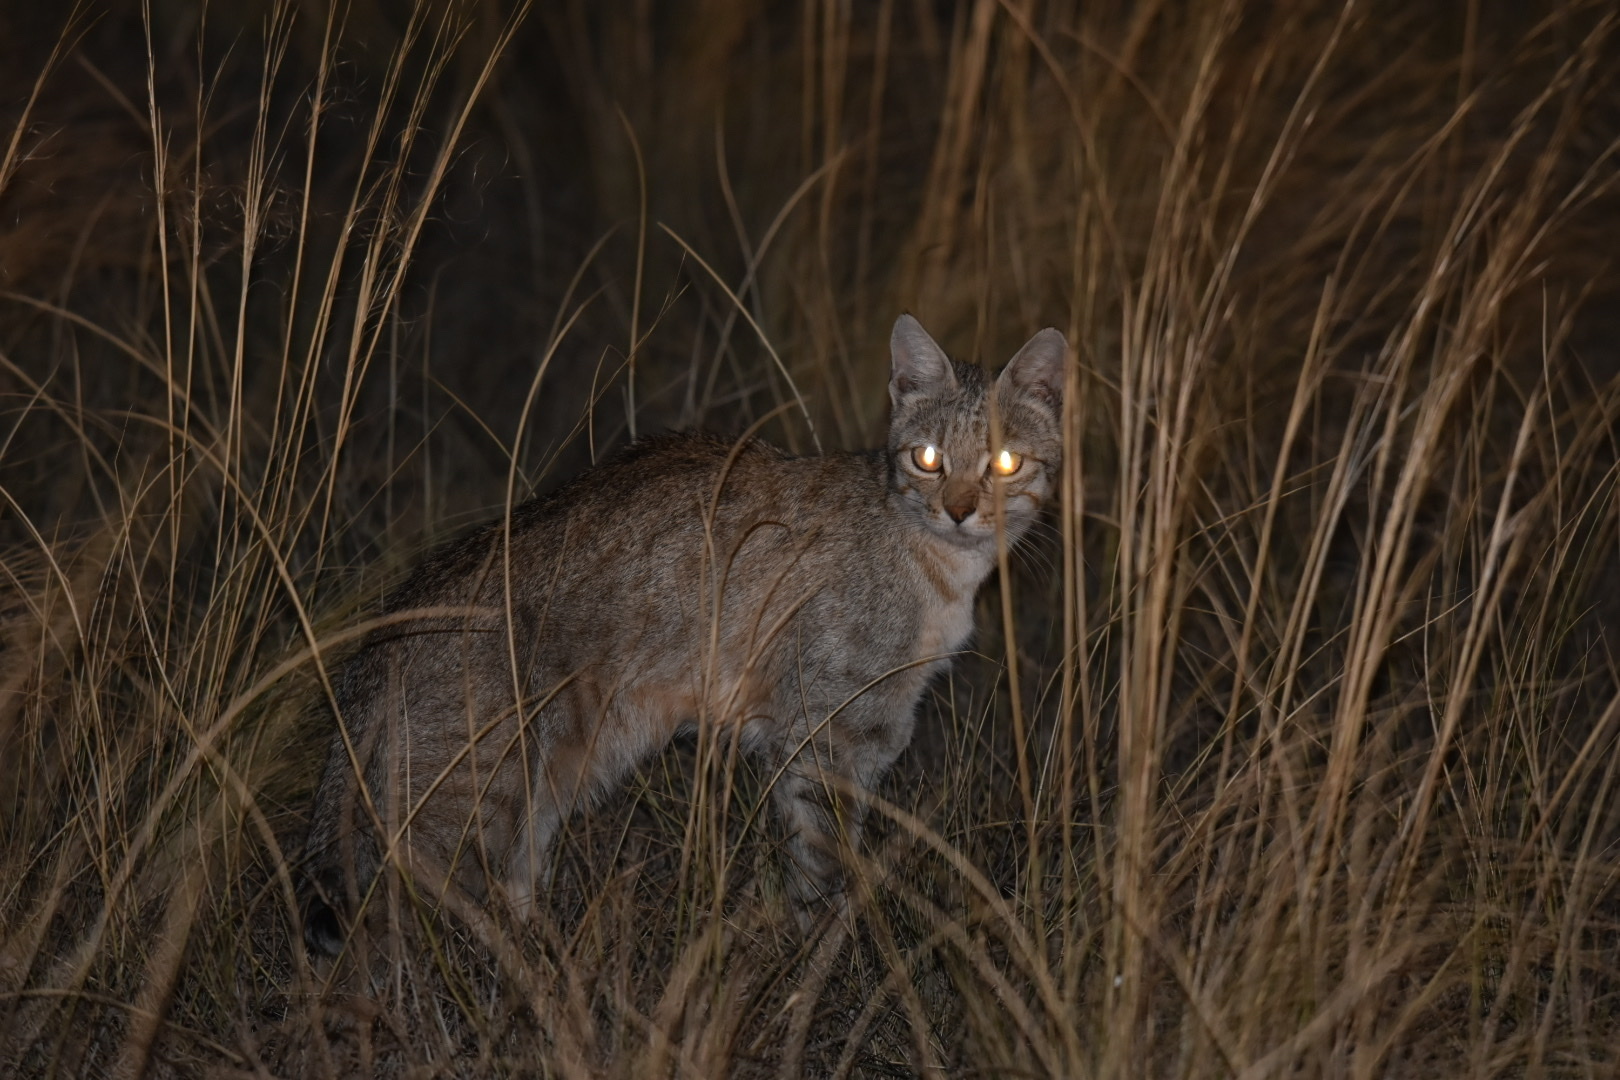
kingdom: Animalia
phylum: Chordata
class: Mammalia
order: Carnivora
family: Felidae
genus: Felis
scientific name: Felis silvestris
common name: Wildcat
